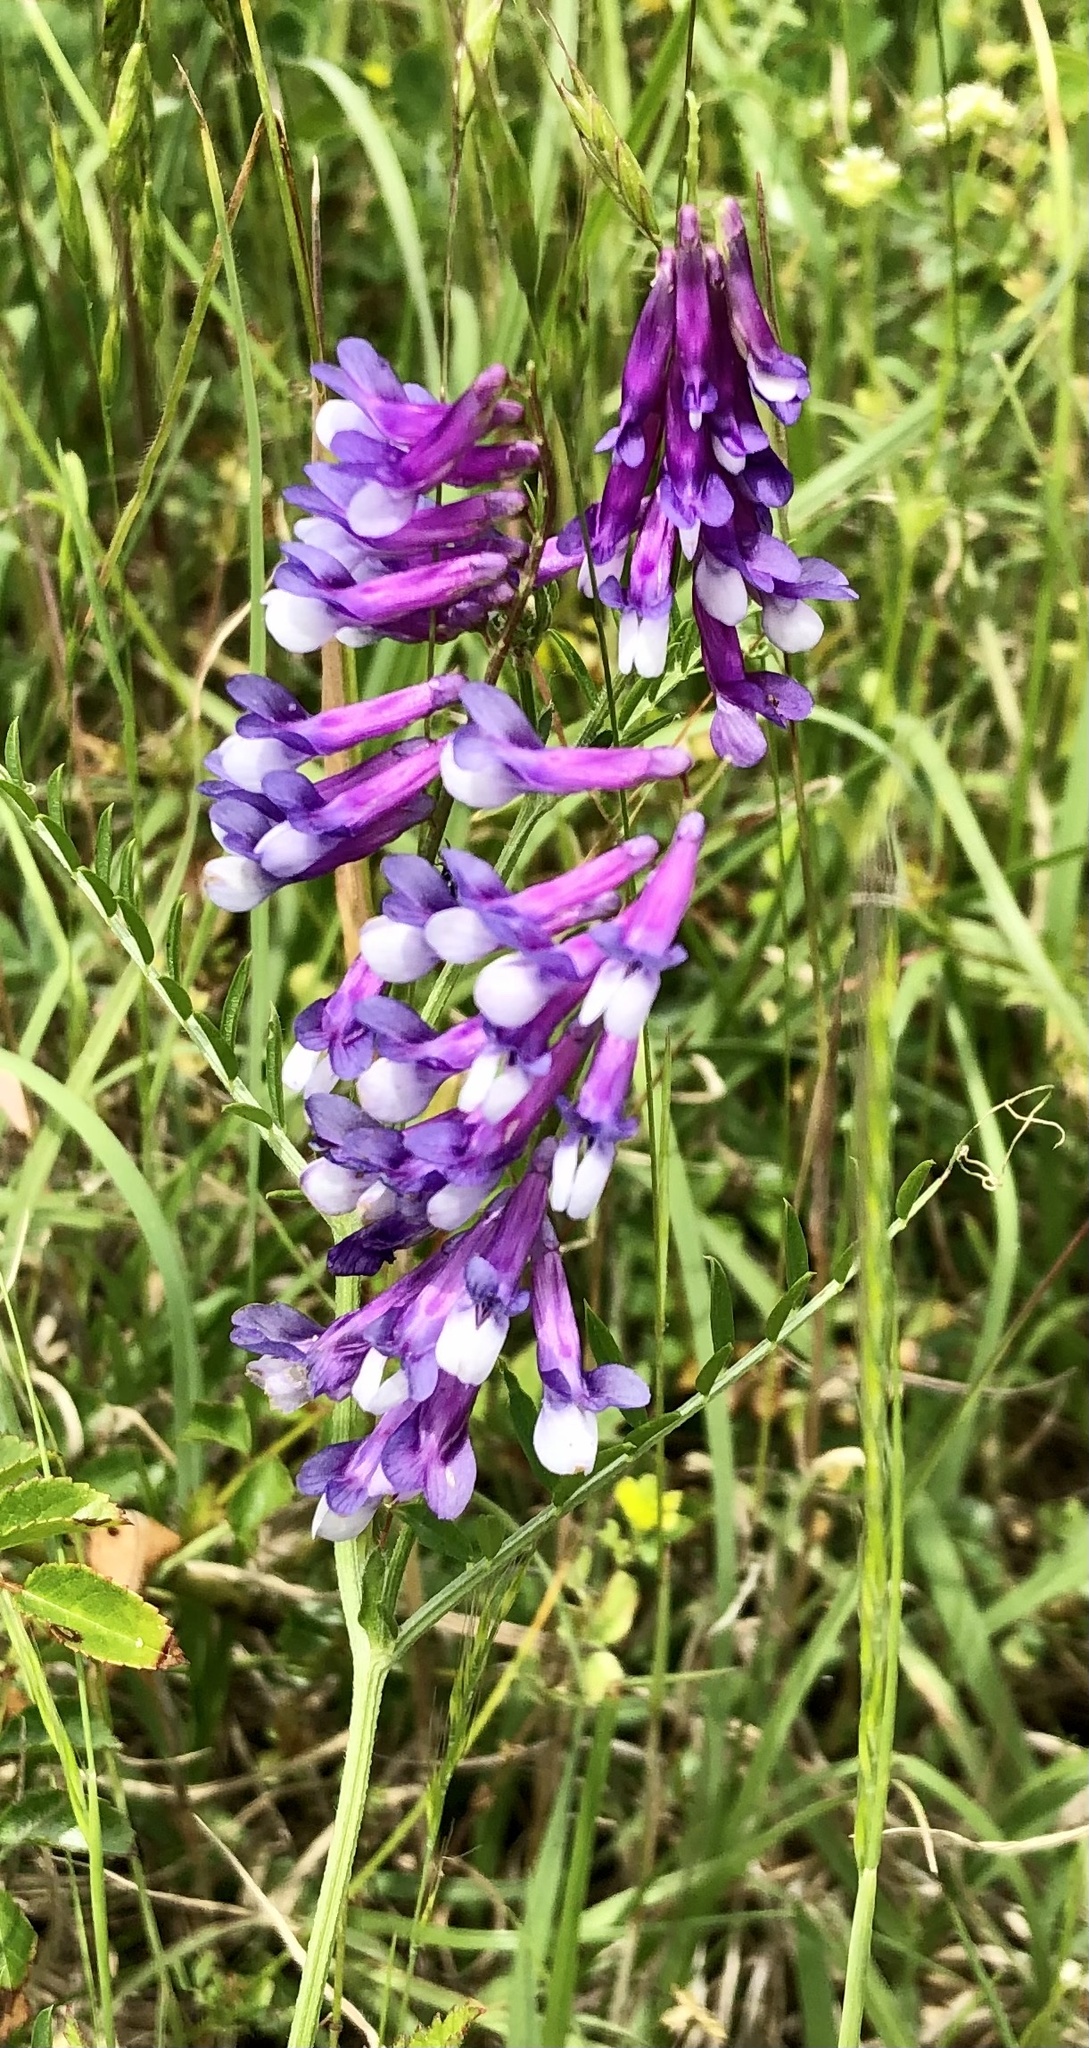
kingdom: Plantae
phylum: Tracheophyta
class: Magnoliopsida
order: Fabales
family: Fabaceae
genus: Vicia
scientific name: Vicia villosa
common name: Fodder vetch
